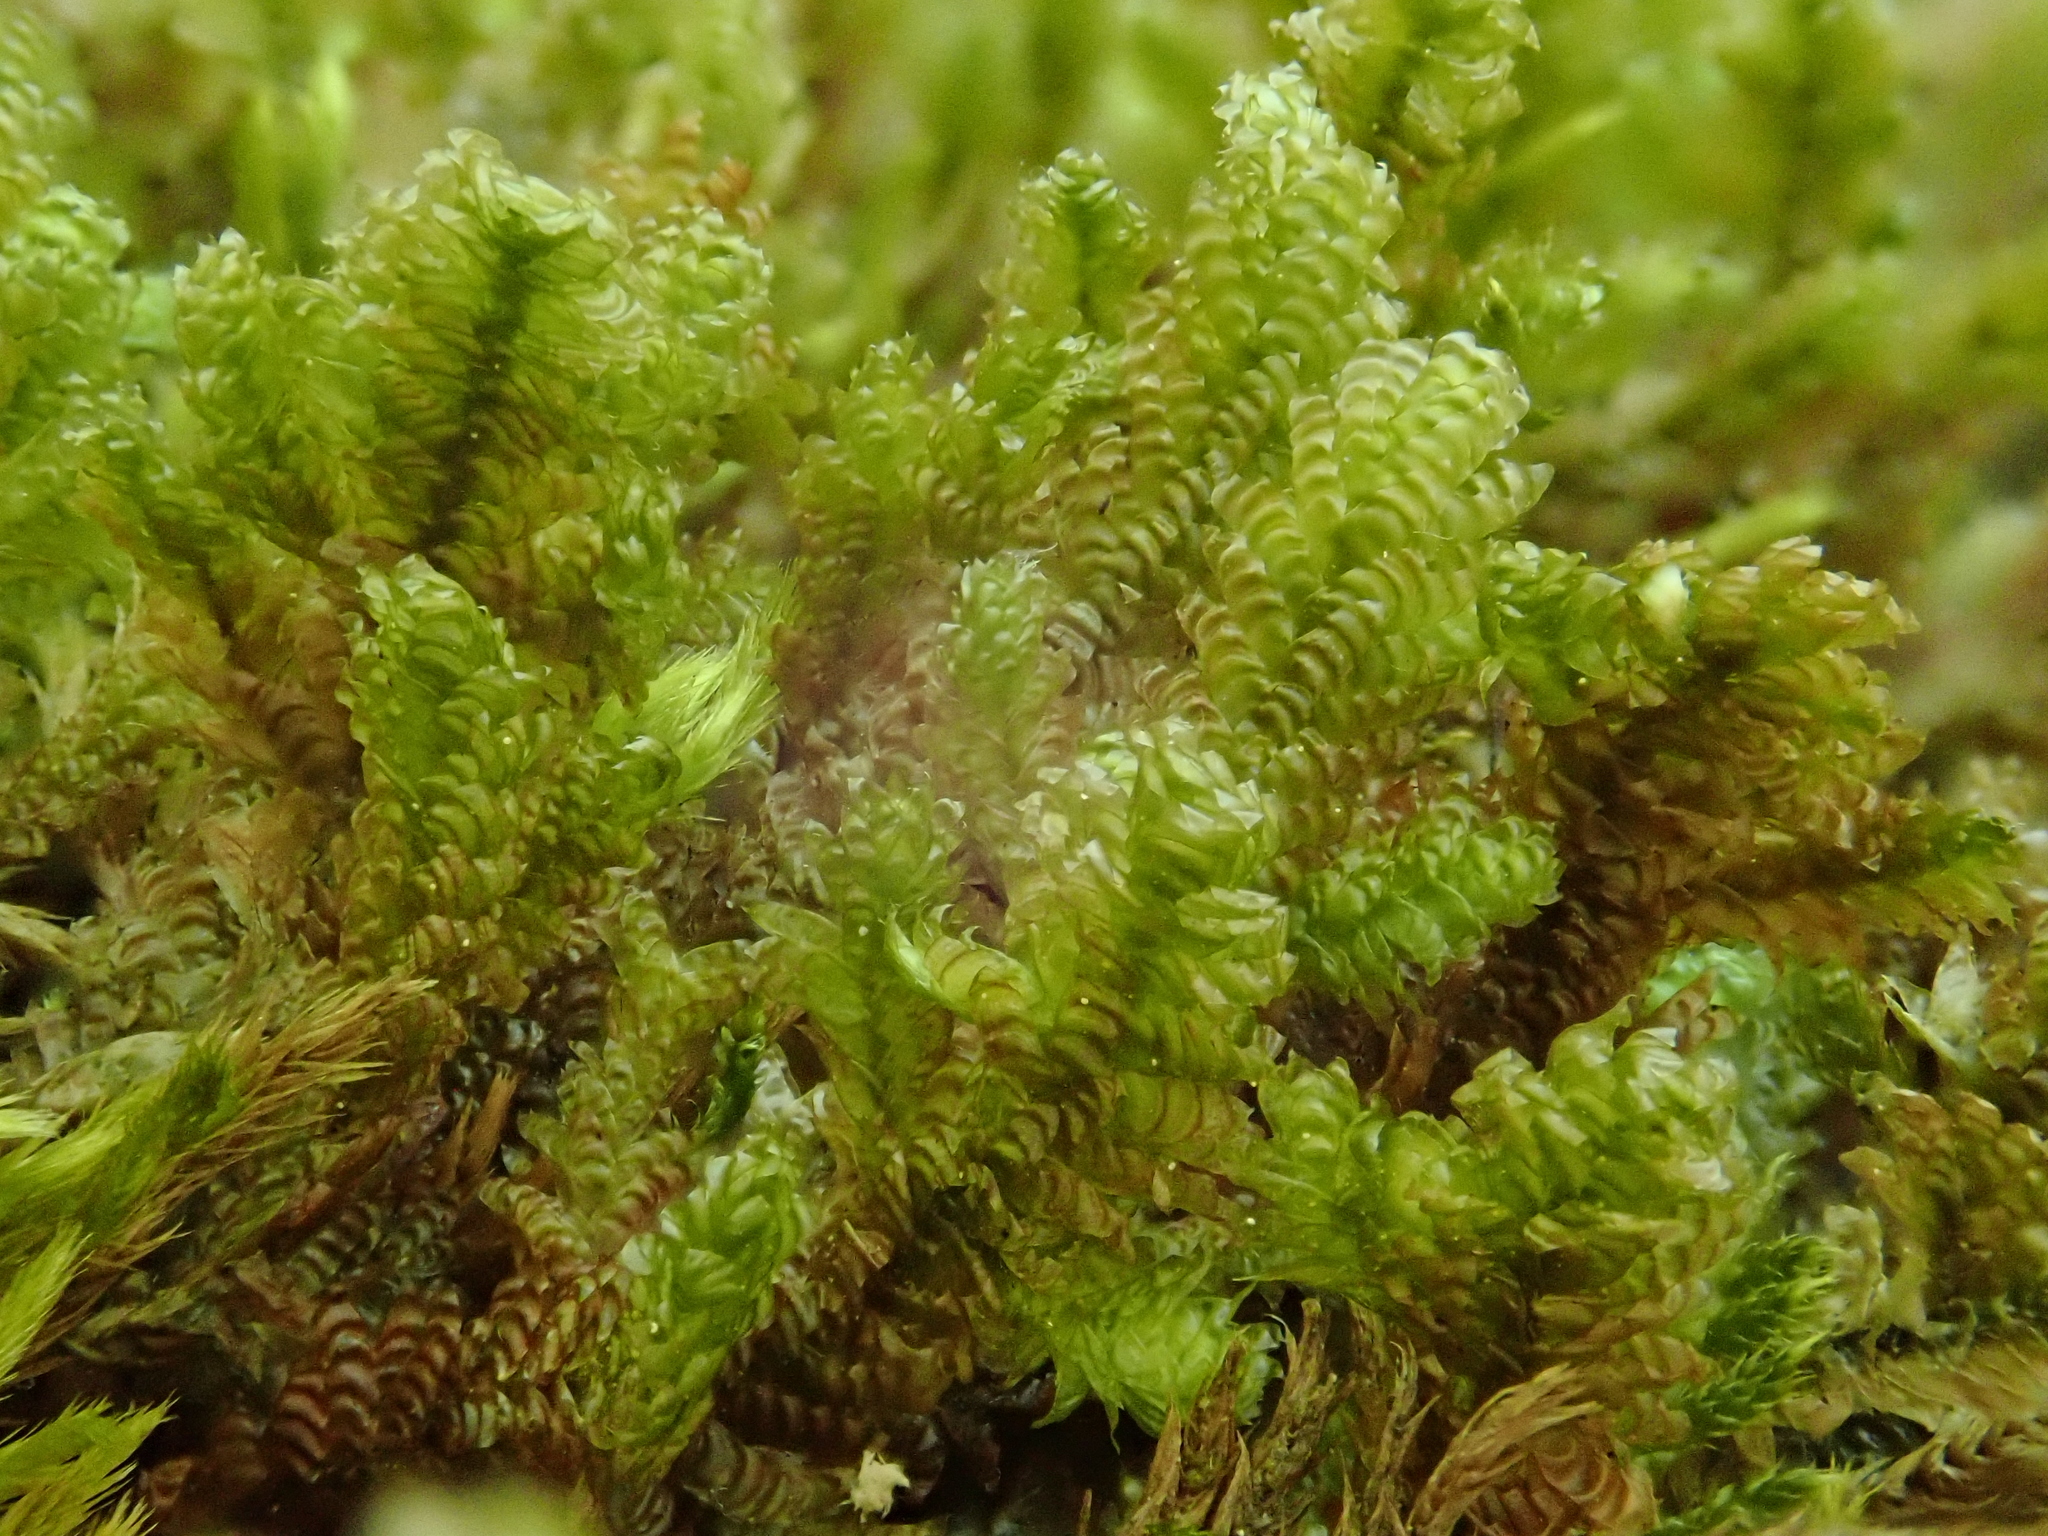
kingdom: Plantae
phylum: Bryophyta
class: Bryopsida
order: Hypnales
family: Neckeraceae
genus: Exsertotheca
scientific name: Exsertotheca crispa
